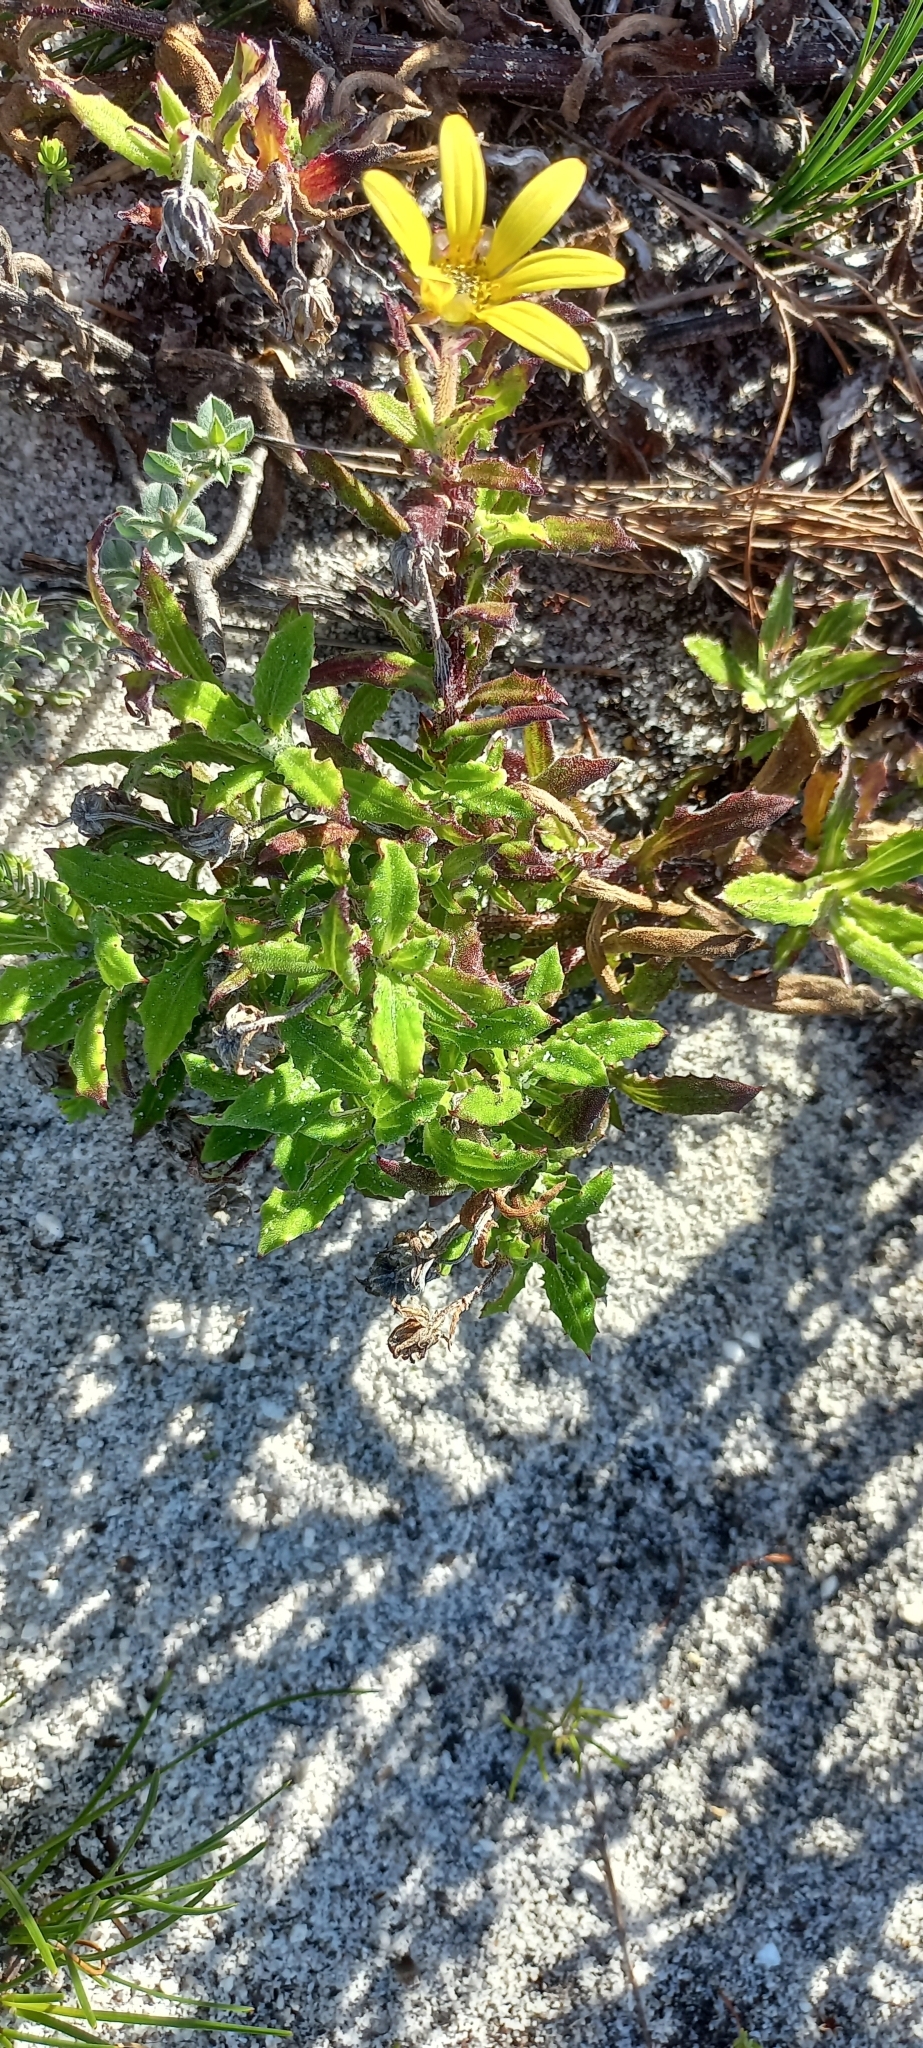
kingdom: Plantae
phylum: Tracheophyta
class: Magnoliopsida
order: Asterales
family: Asteraceae
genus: Arctotis
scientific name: Arctotis scabra
